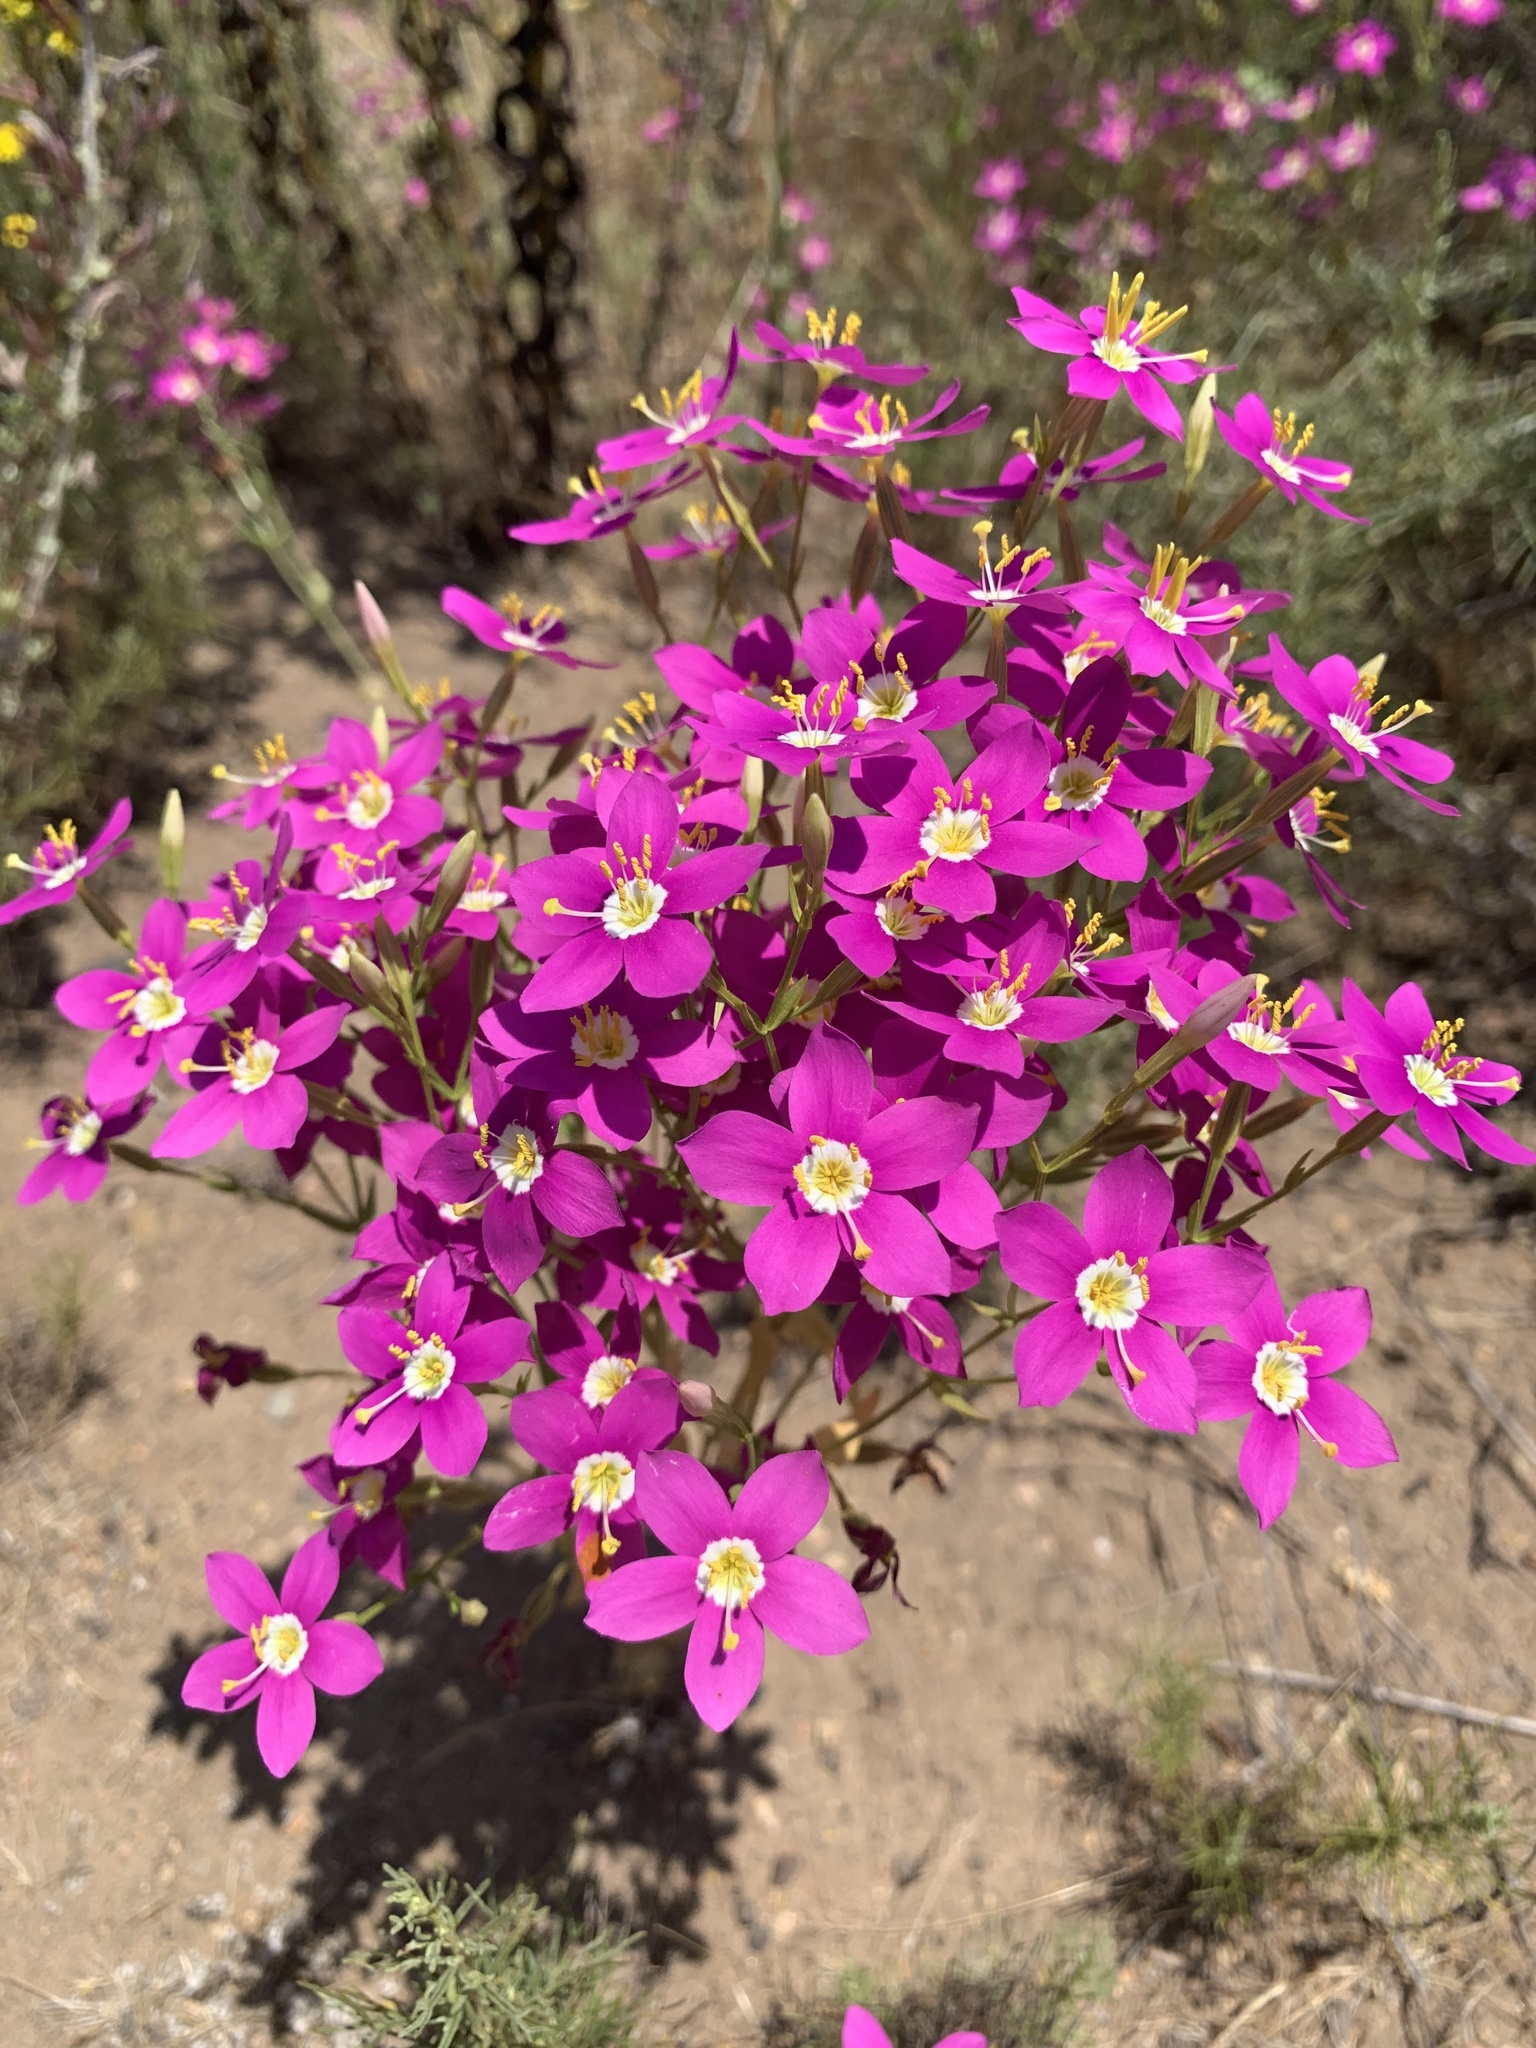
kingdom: Plantae
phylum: Tracheophyta
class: Magnoliopsida
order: Gentianales
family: Gentianaceae
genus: Zeltnera
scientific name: Zeltnera venusta
